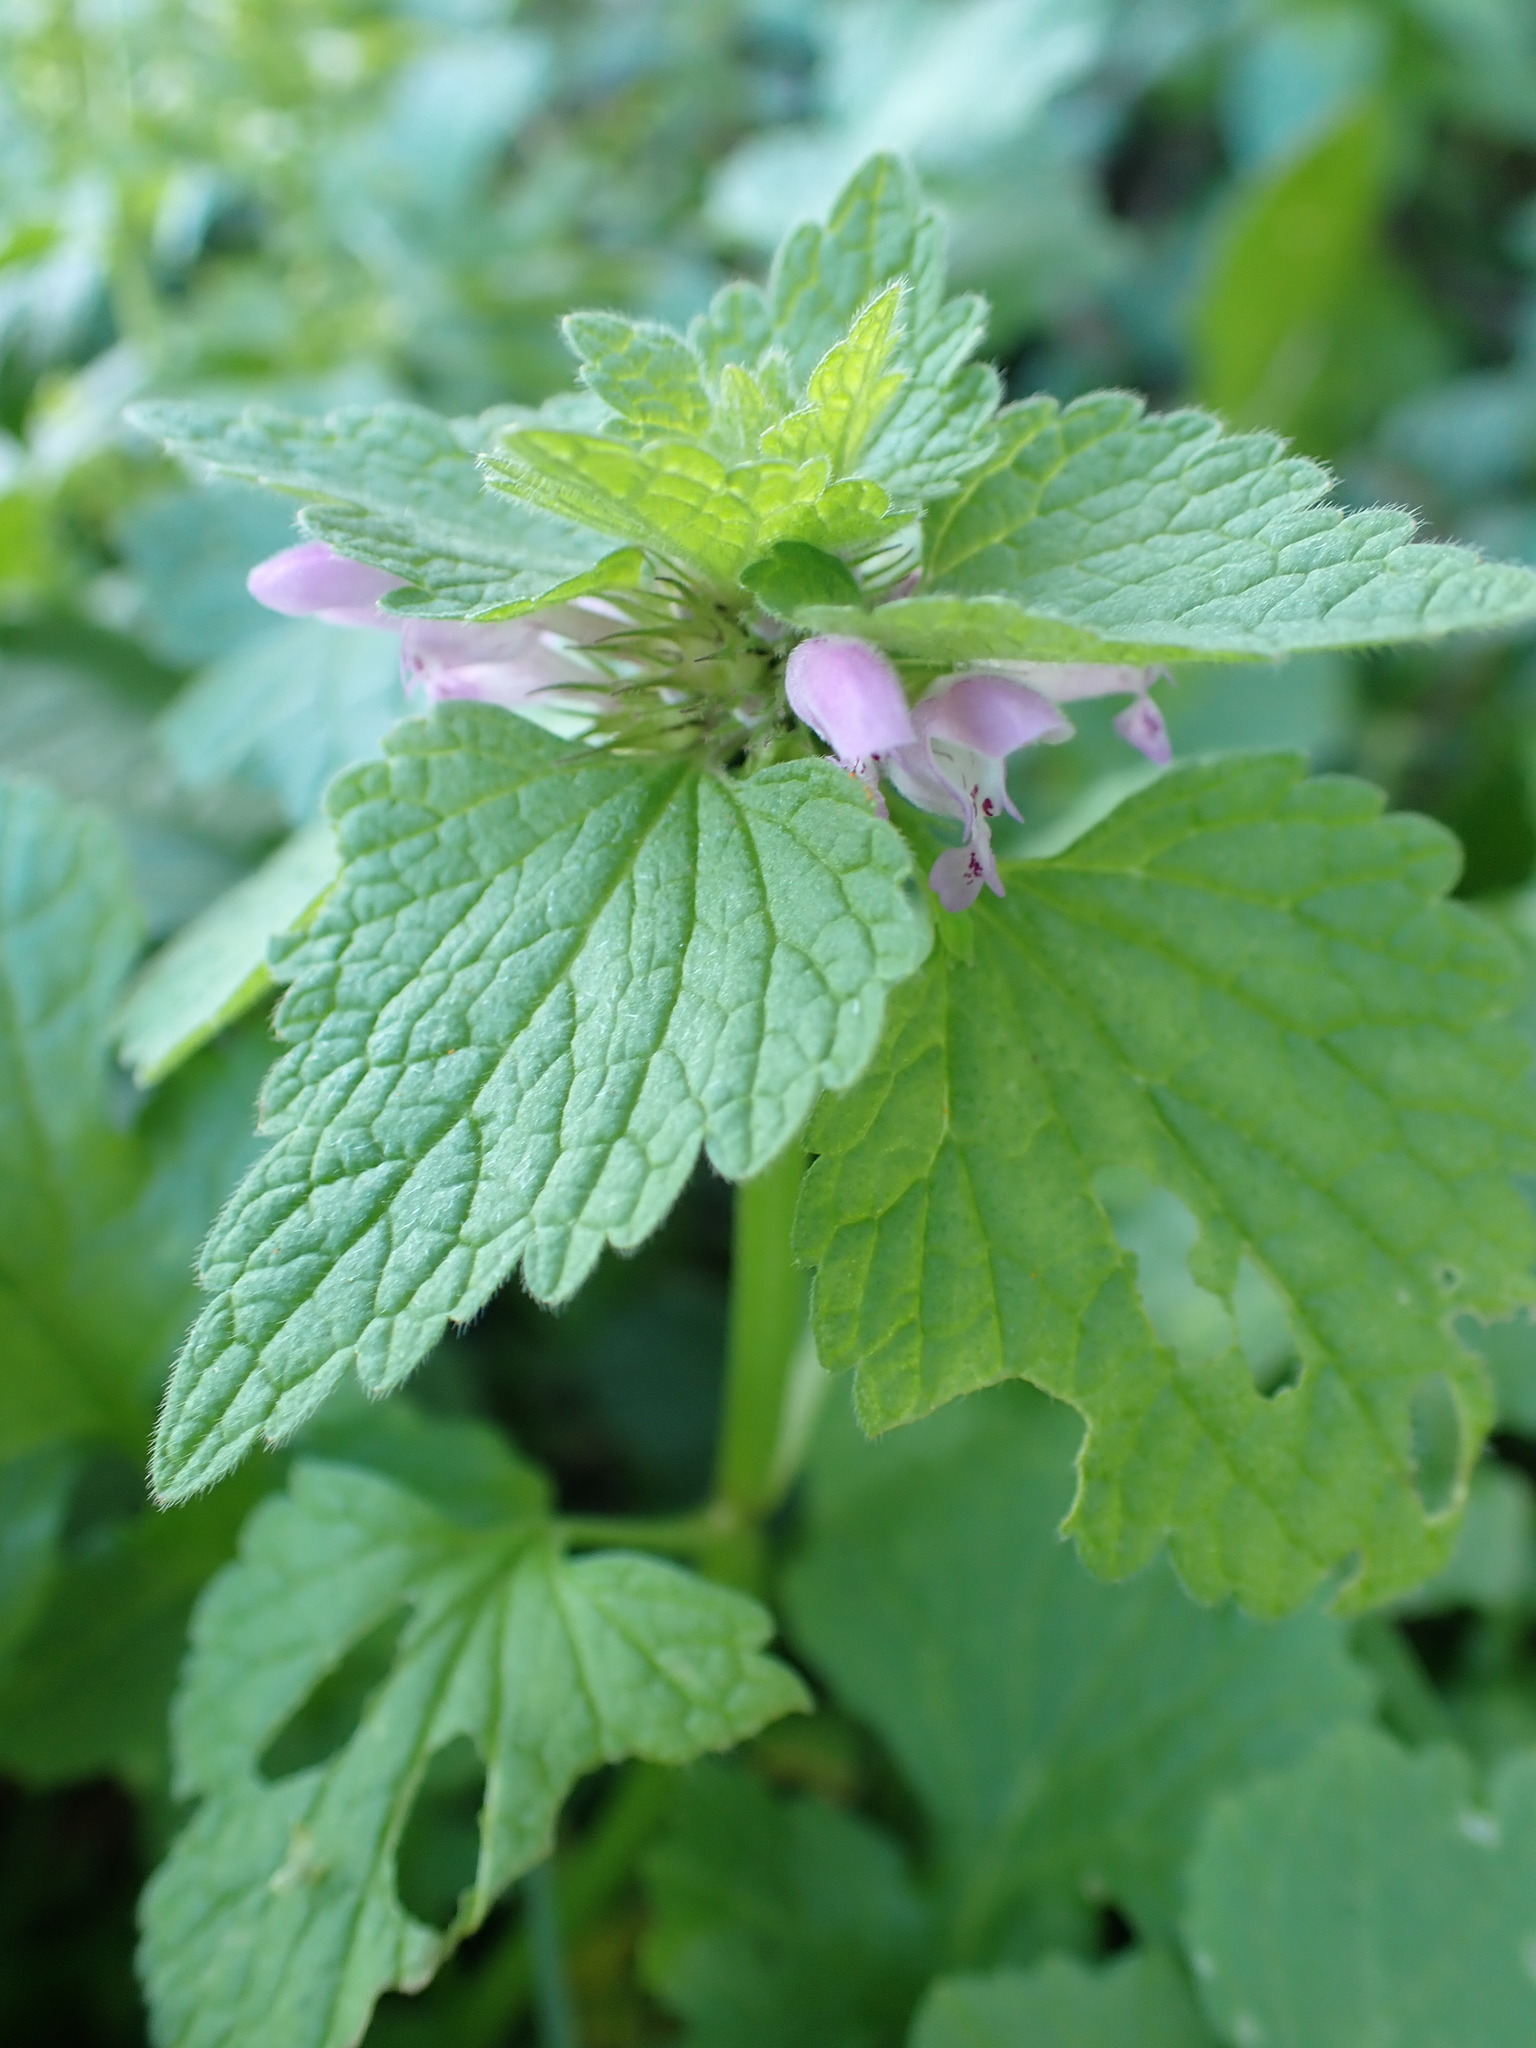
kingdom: Plantae
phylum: Tracheophyta
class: Magnoliopsida
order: Lamiales
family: Lamiaceae
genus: Lamium
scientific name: Lamium purpureum
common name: Red dead-nettle
